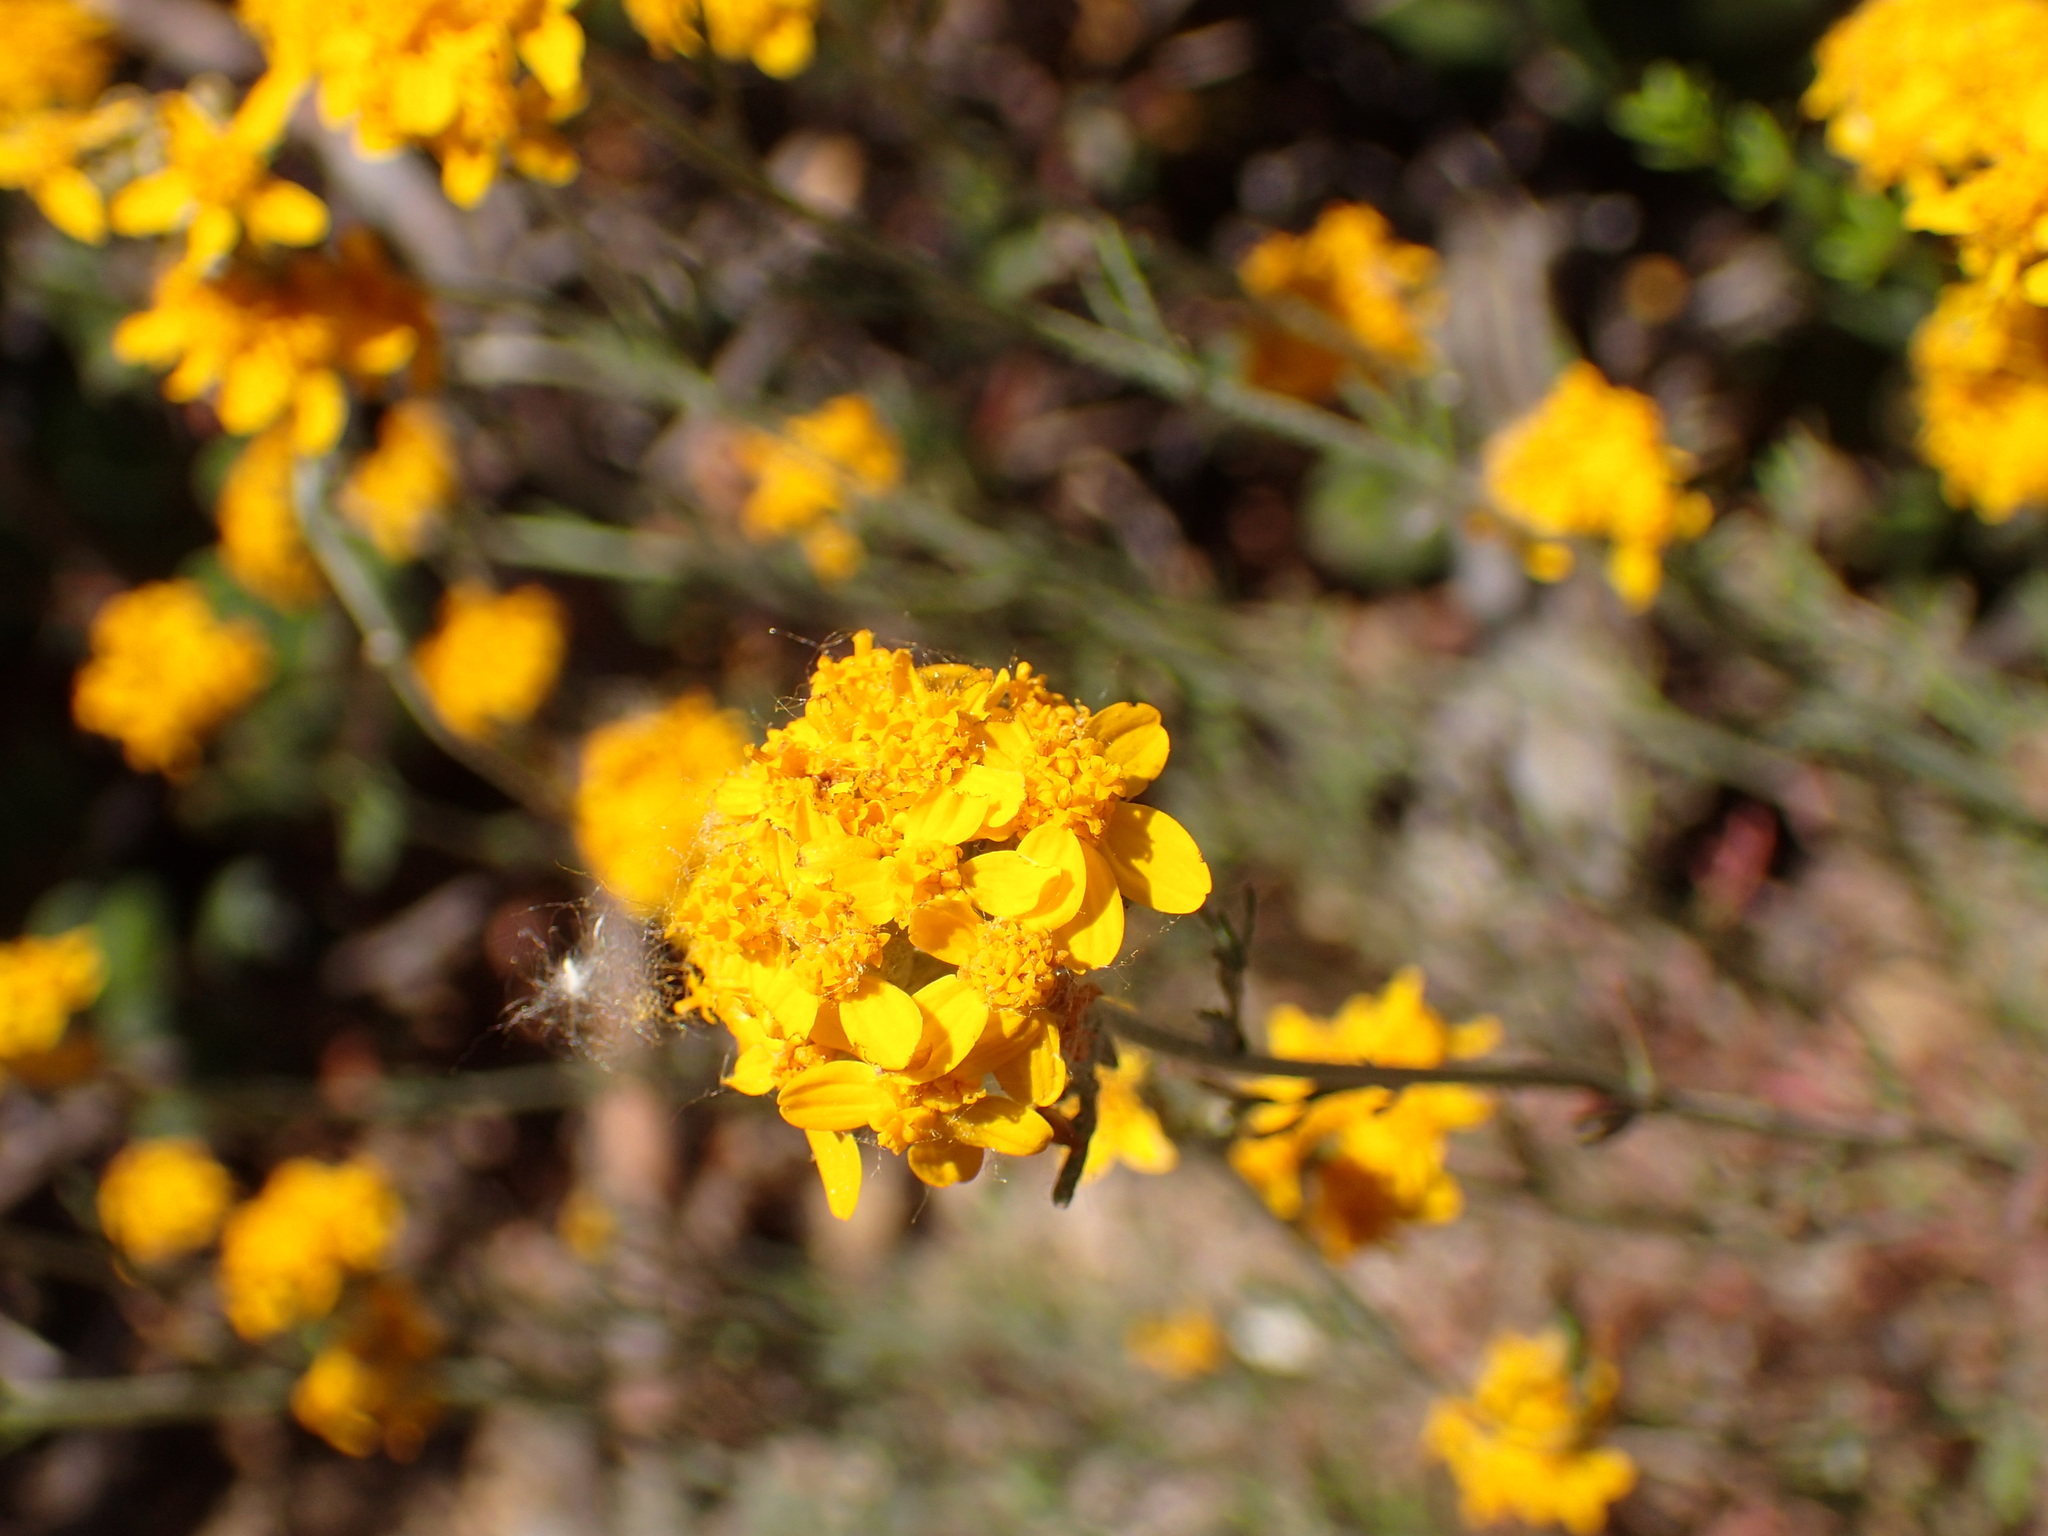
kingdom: Plantae
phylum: Tracheophyta
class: Magnoliopsida
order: Asterales
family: Asteraceae
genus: Eriophyllum
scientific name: Eriophyllum confertiflorum
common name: Golden-yarrow
